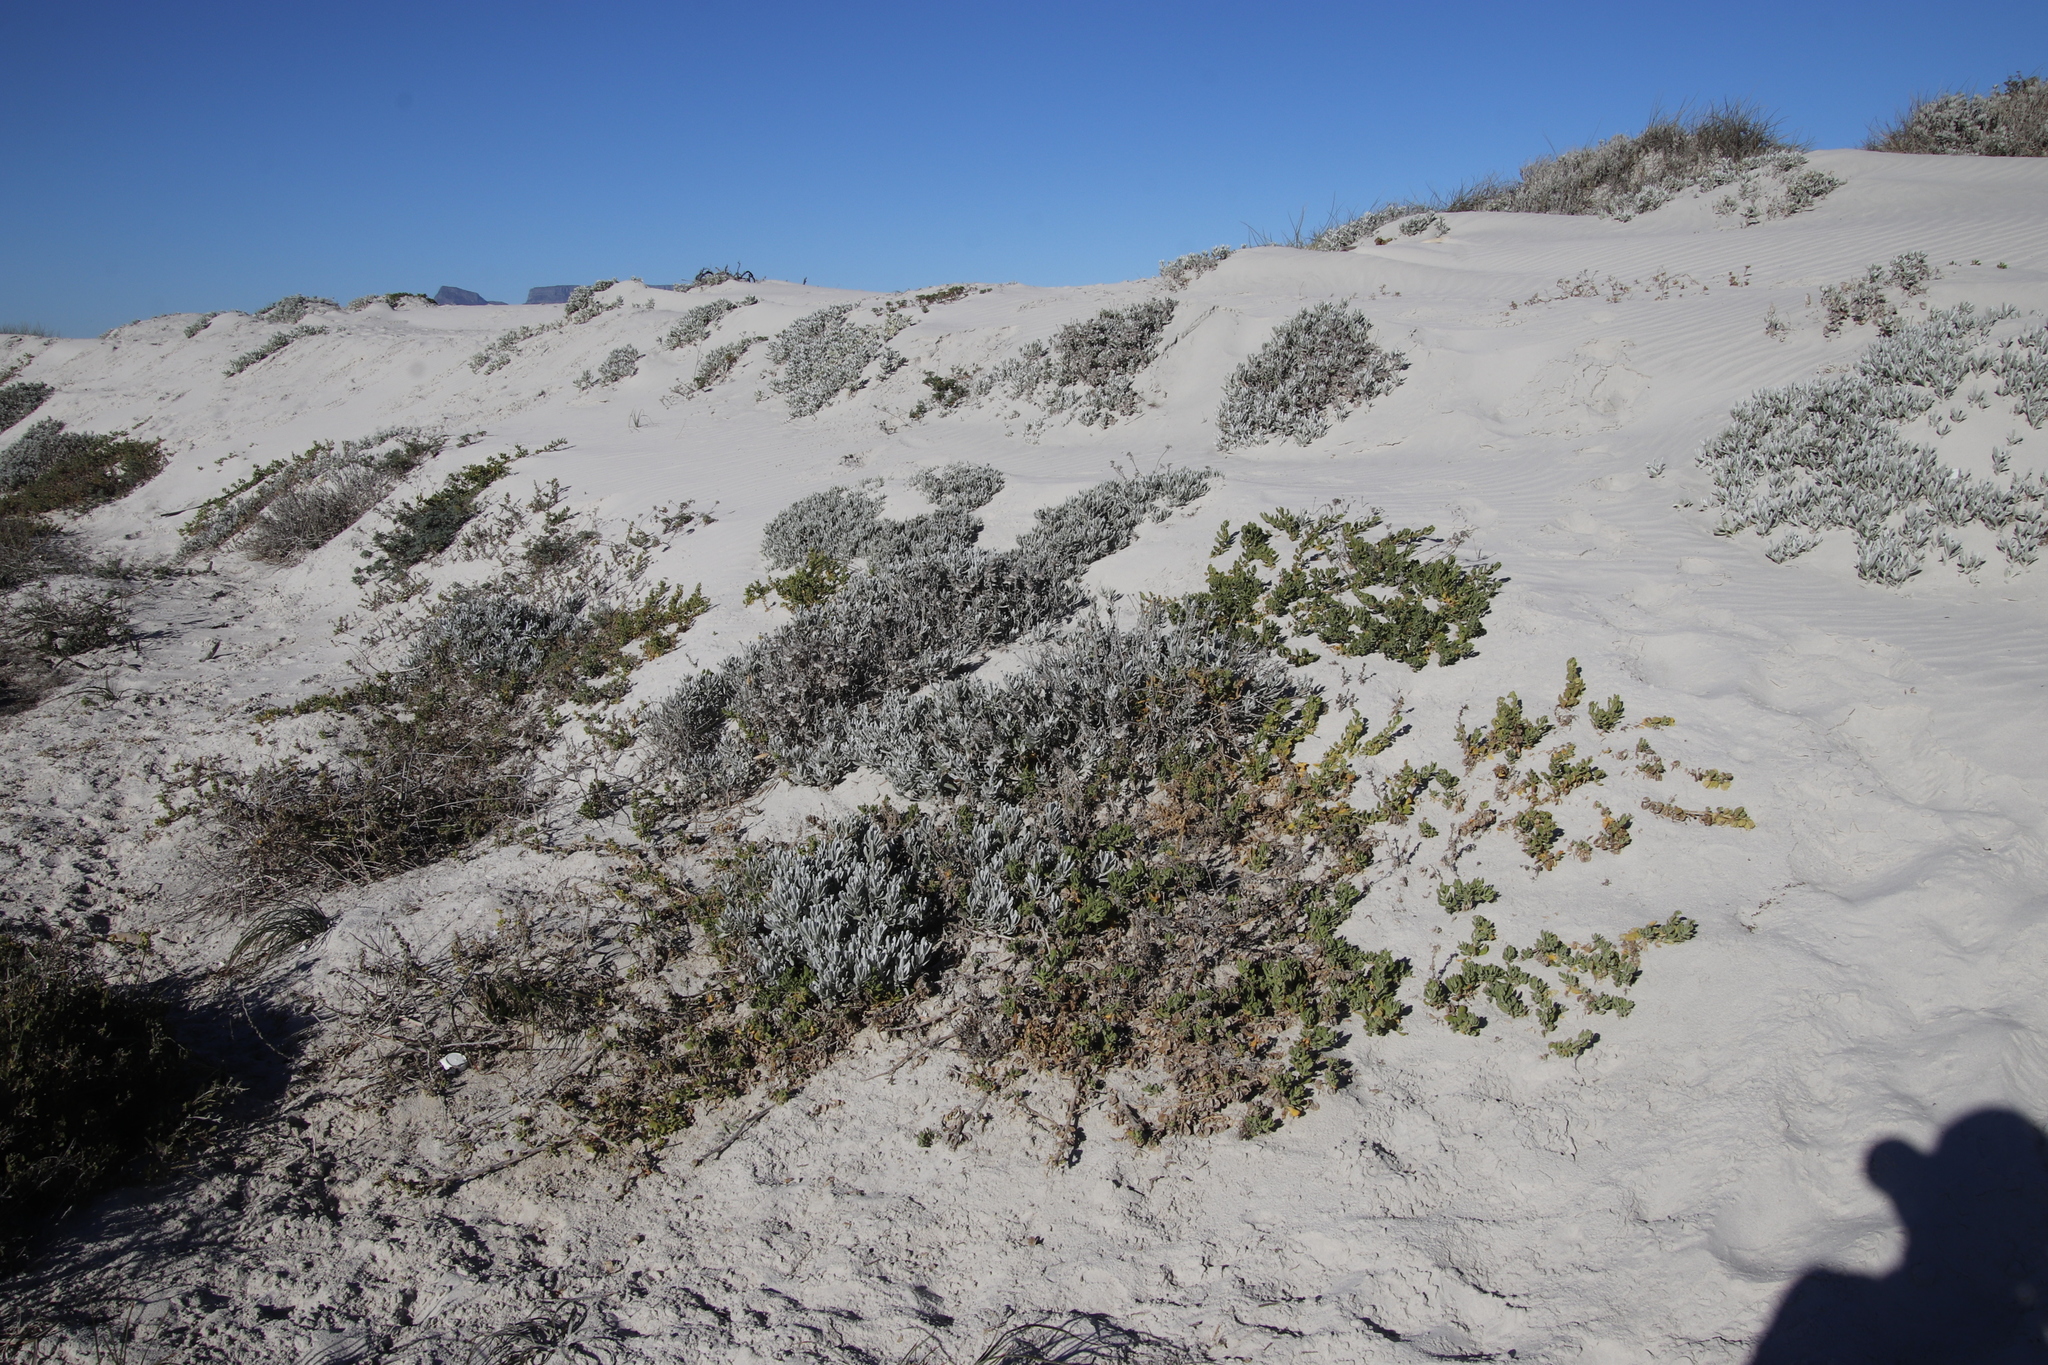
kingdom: Plantae
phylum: Tracheophyta
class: Magnoliopsida
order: Asterales
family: Asteraceae
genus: Didelta
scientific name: Didelta carnosa
